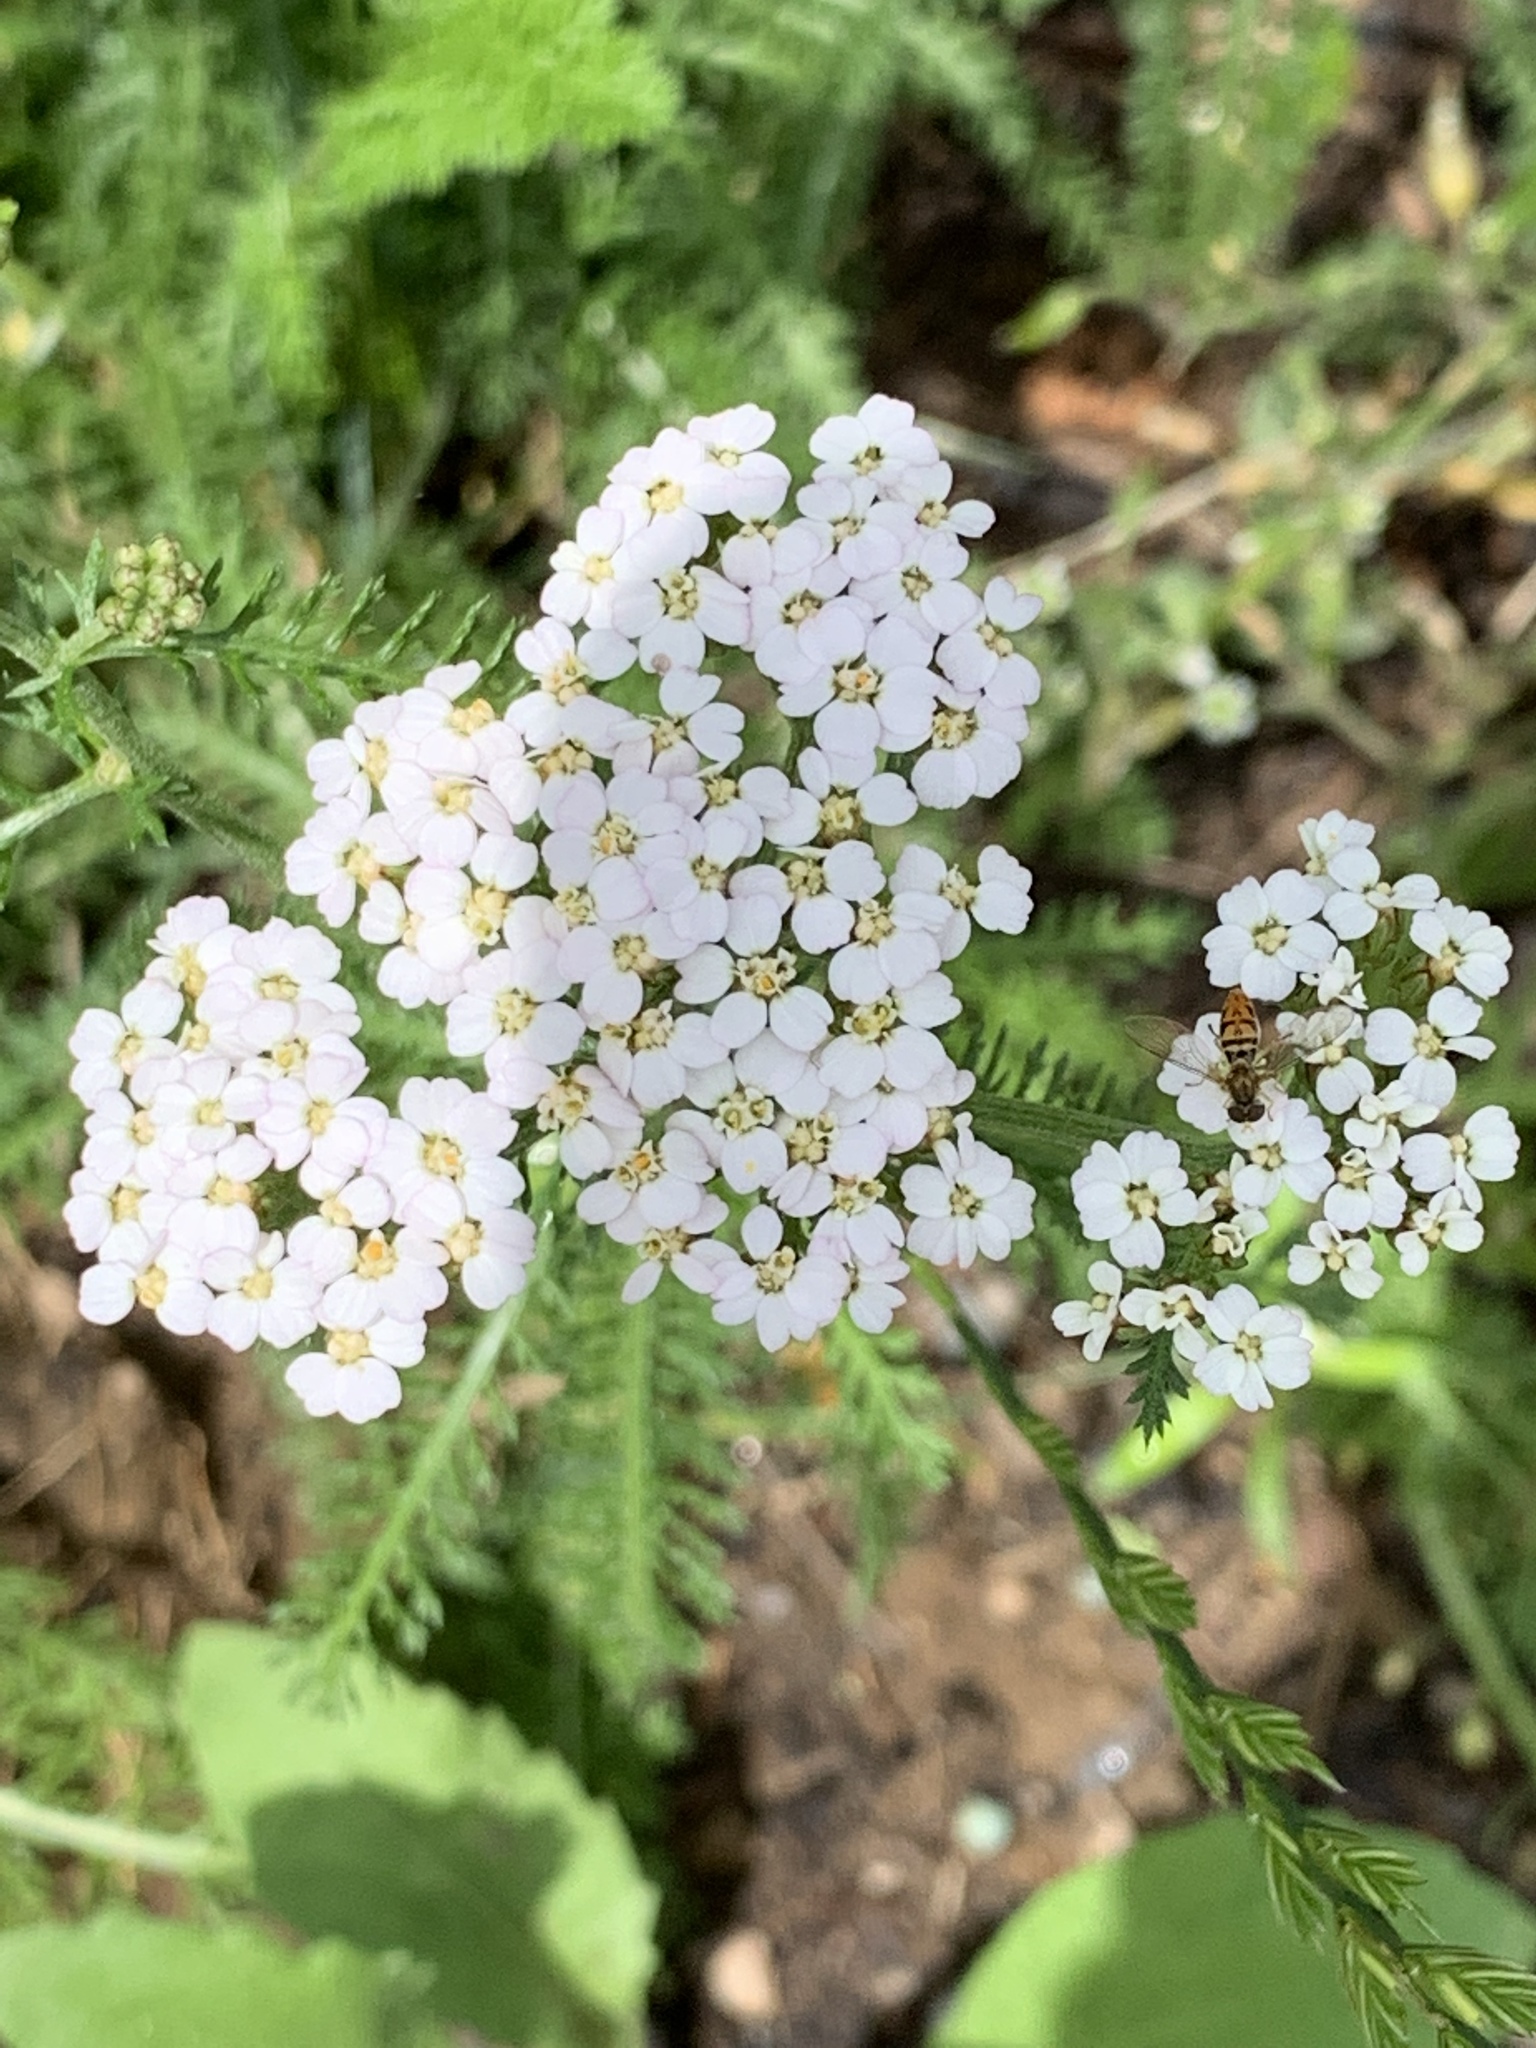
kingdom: Plantae
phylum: Tracheophyta
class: Magnoliopsida
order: Asterales
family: Asteraceae
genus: Achillea
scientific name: Achillea millefolium
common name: Yarrow
